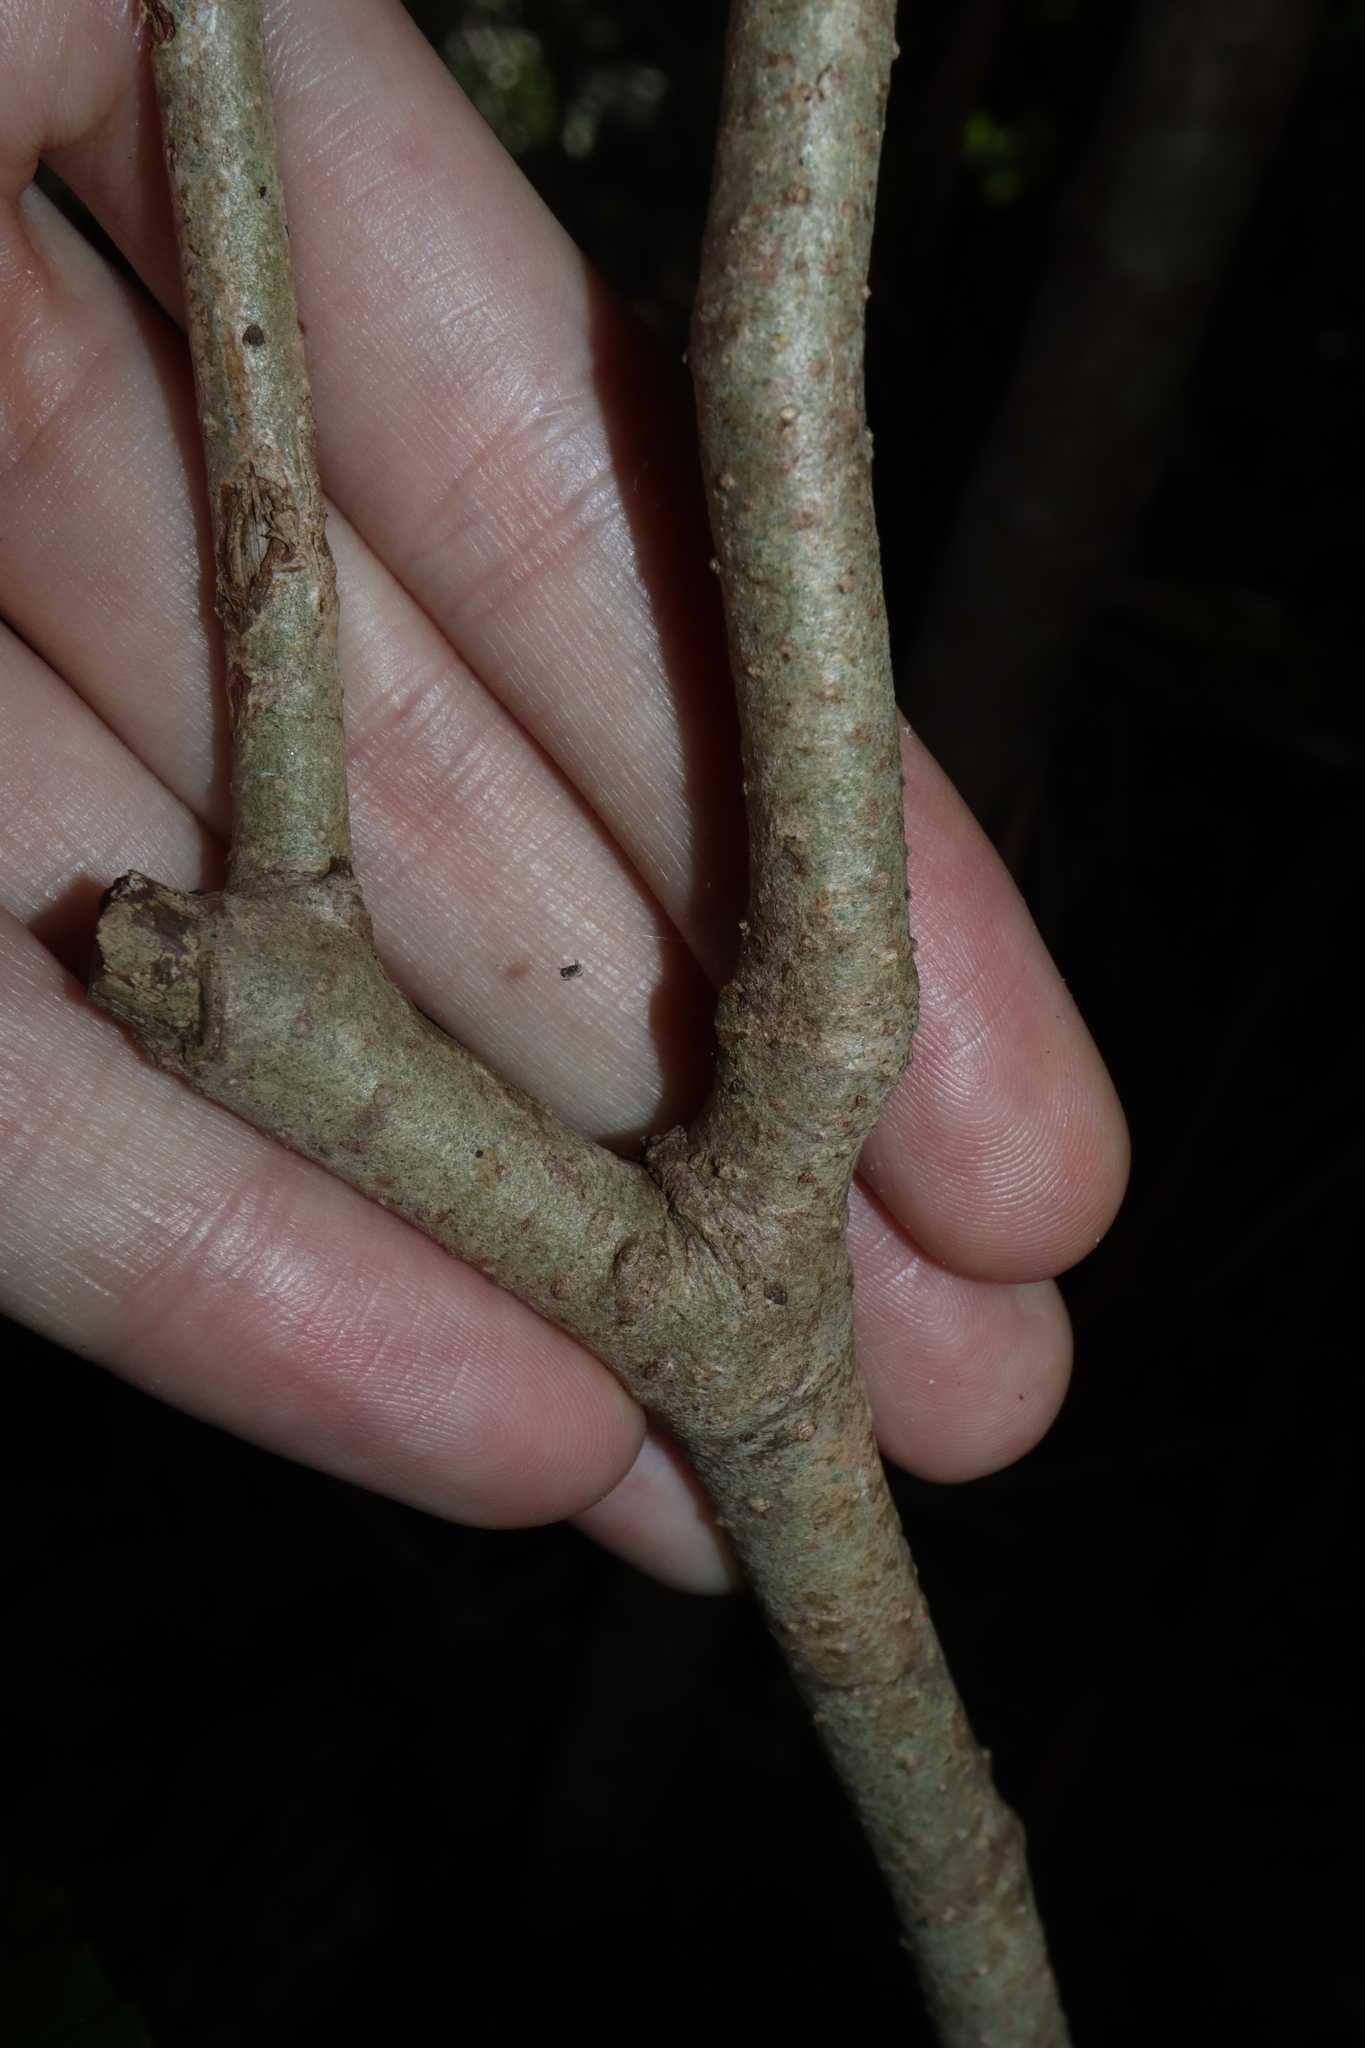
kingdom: Plantae
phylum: Tracheophyta
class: Magnoliopsida
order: Apiales
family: Pennantiaceae
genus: Pennantia
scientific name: Pennantia cunninghamii
